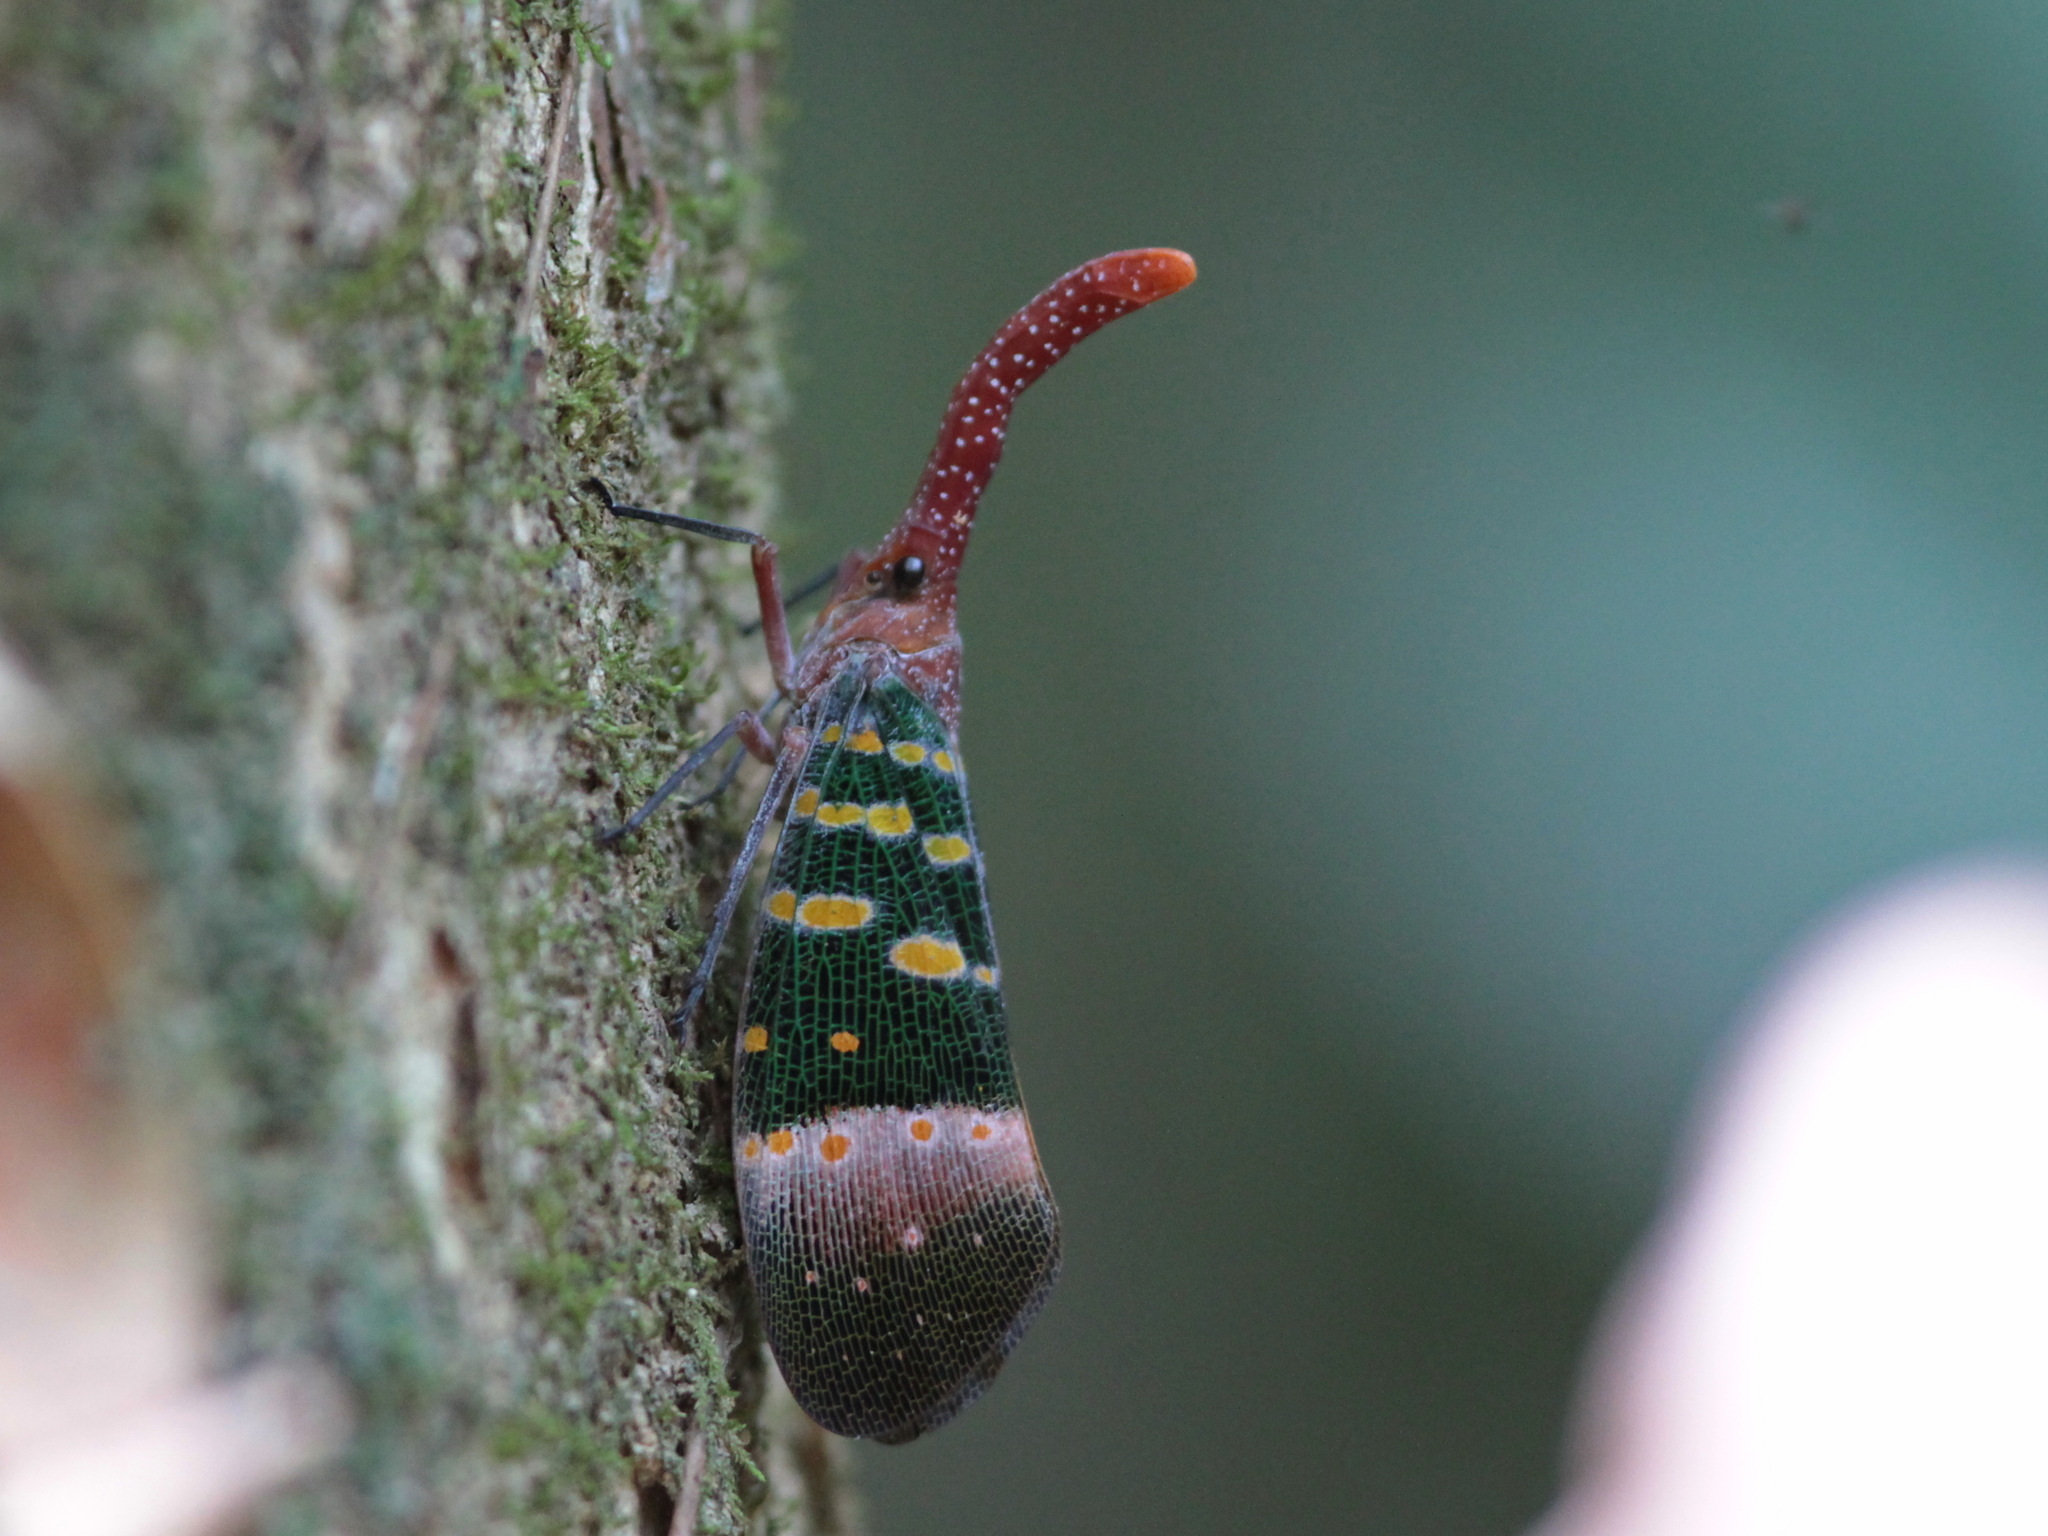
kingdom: Animalia
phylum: Arthropoda
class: Insecta
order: Hemiptera
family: Fulgoridae
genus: Pyrops
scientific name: Pyrops karenius
